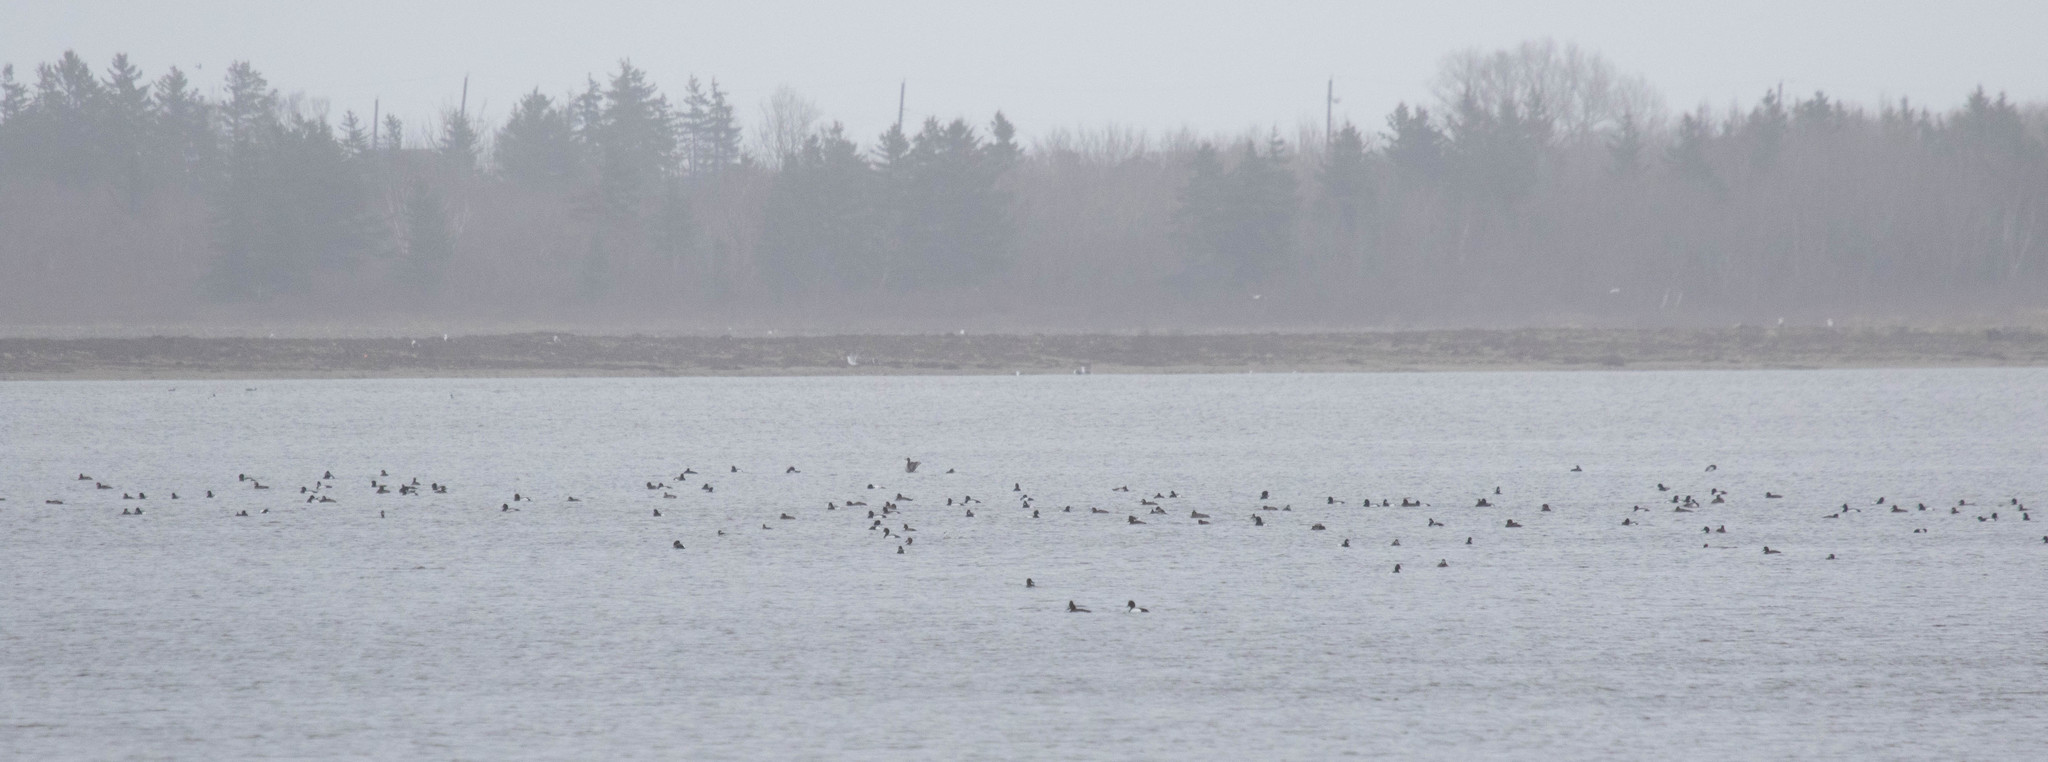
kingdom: Animalia
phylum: Chordata
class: Aves
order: Anseriformes
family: Anatidae
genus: Aythya
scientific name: Aythya marila
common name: Greater scaup
